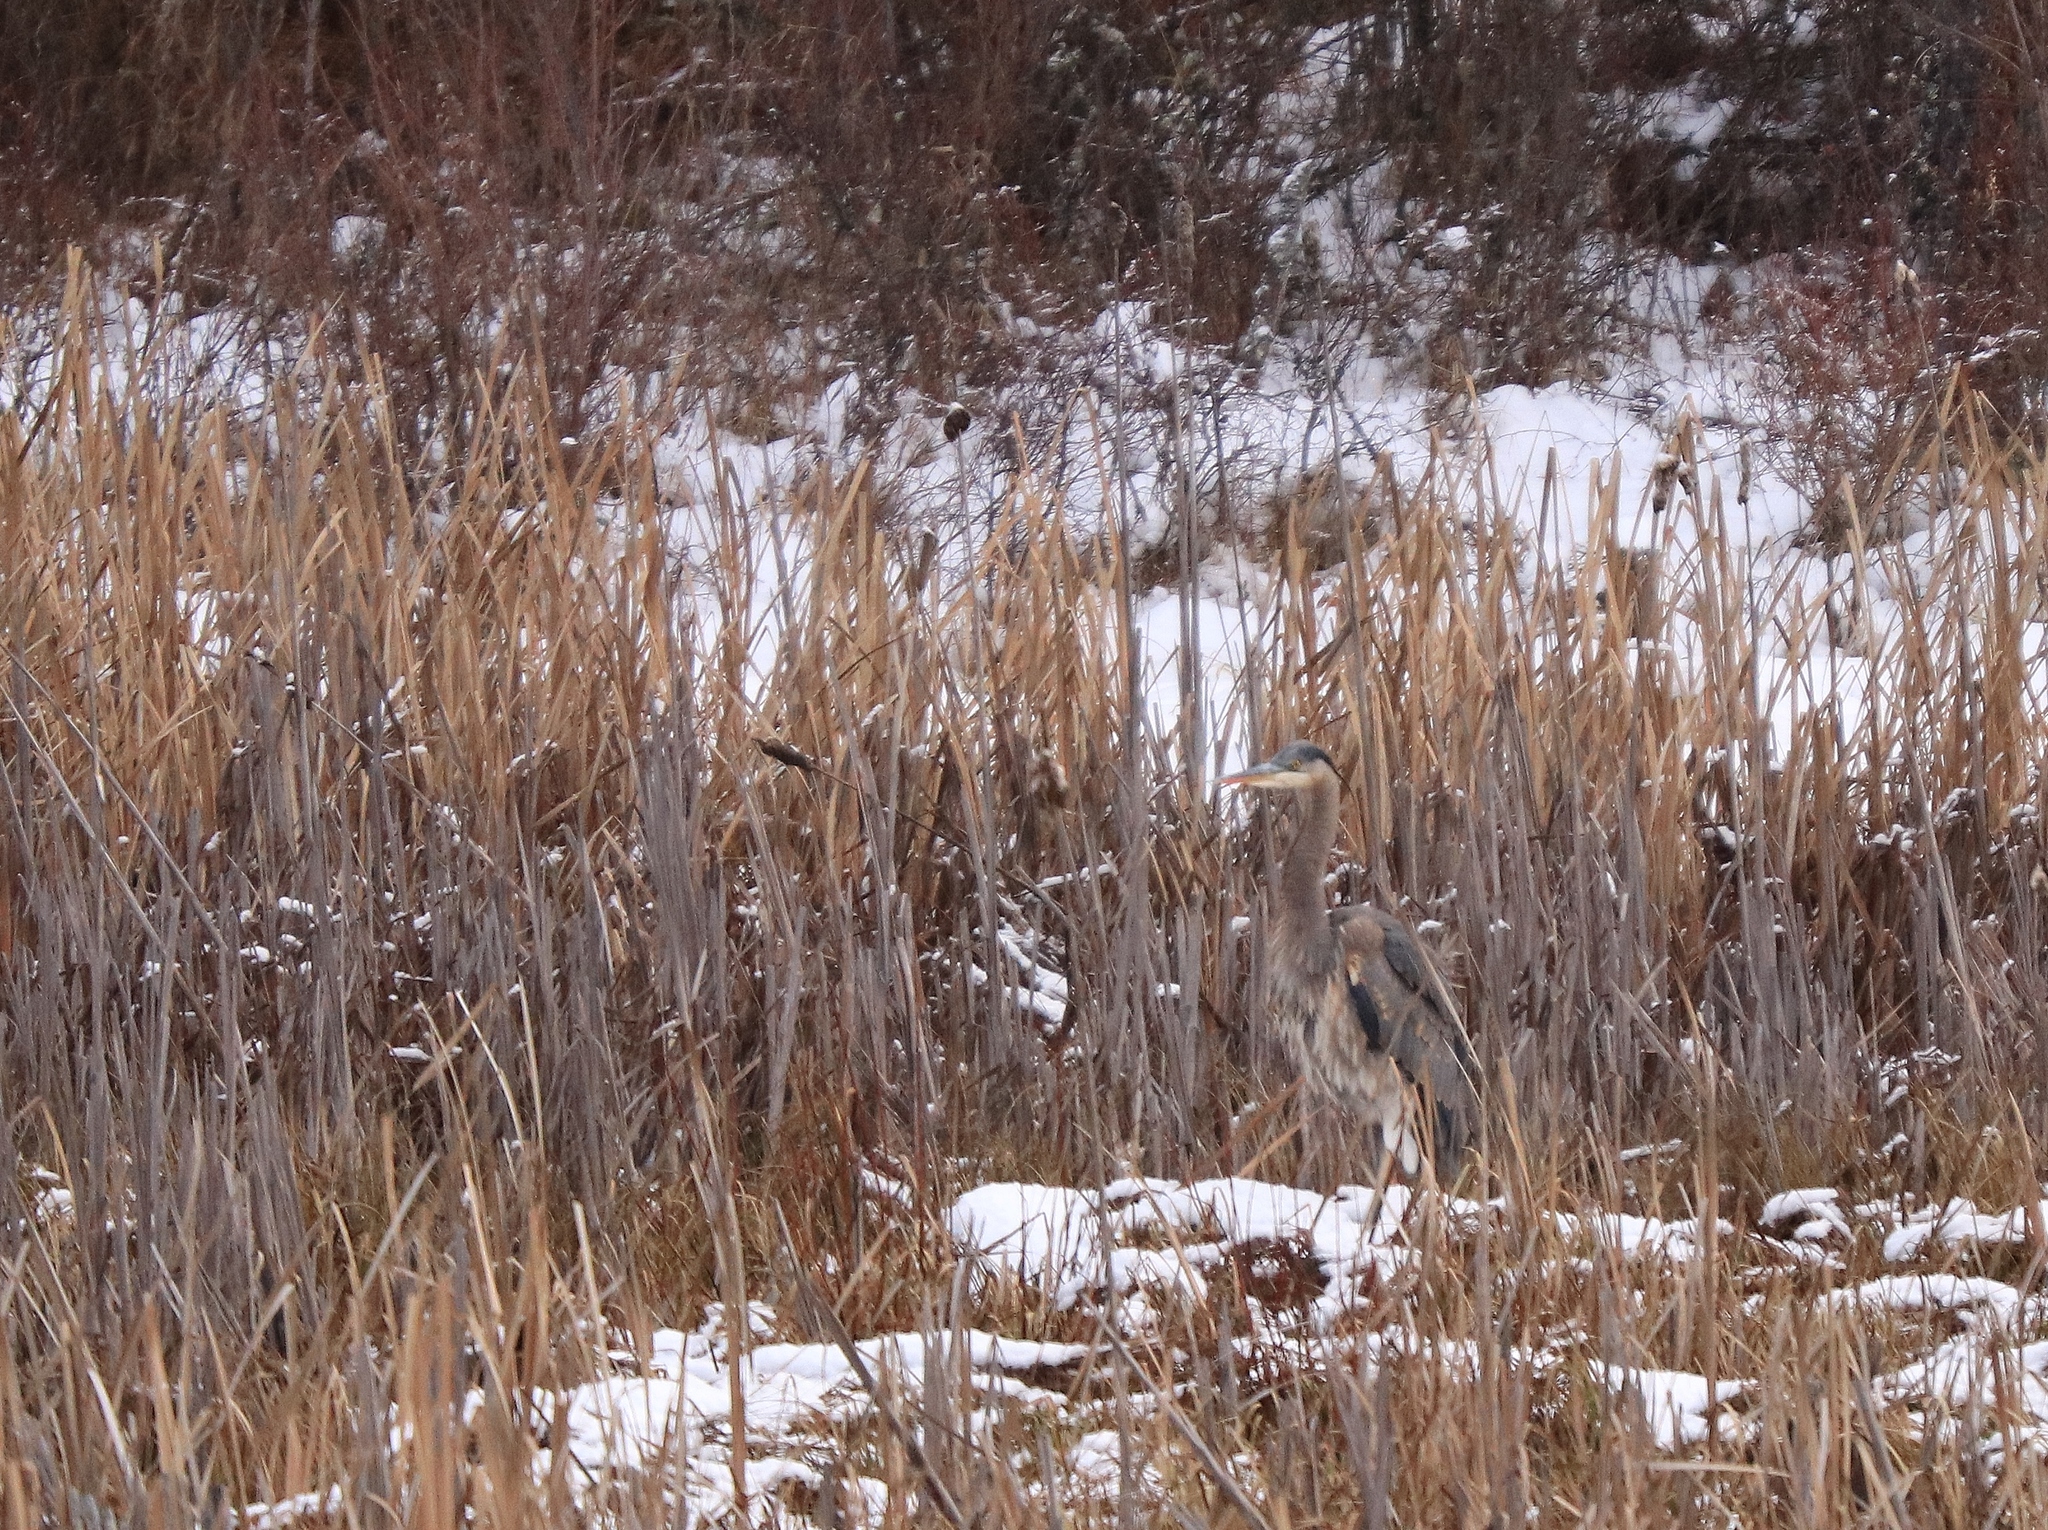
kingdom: Animalia
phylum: Chordata
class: Aves
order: Pelecaniformes
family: Ardeidae
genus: Ardea
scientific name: Ardea herodias
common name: Great blue heron
